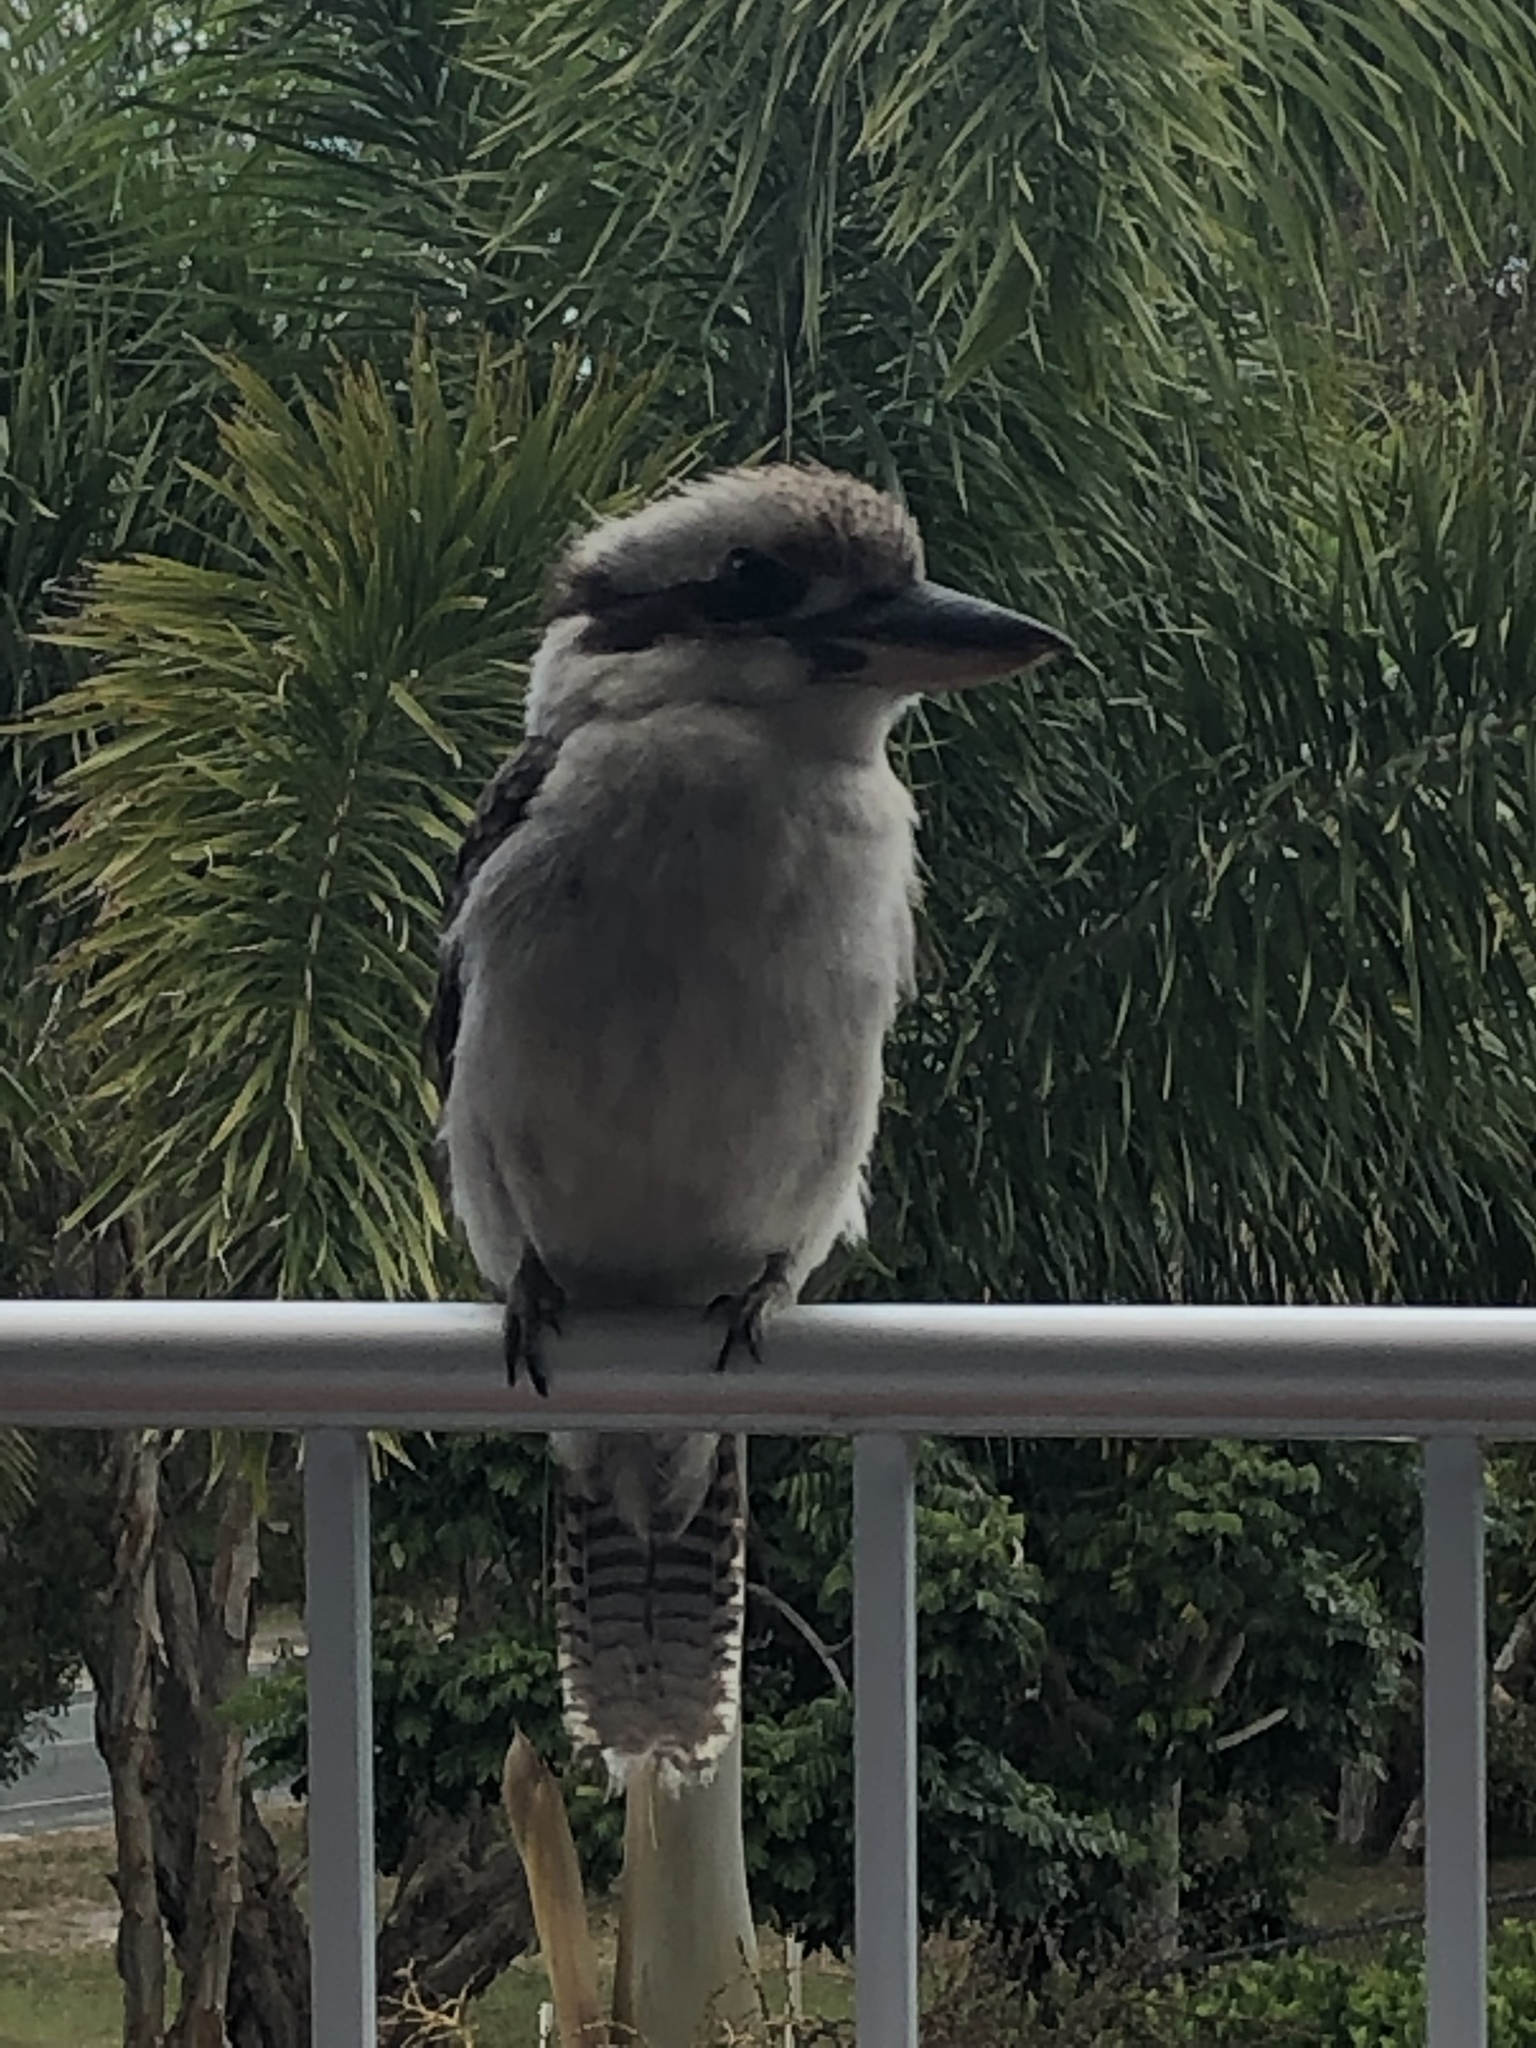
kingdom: Animalia
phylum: Chordata
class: Aves
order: Coraciiformes
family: Alcedinidae
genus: Dacelo
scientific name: Dacelo novaeguineae
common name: Laughing kookaburra
